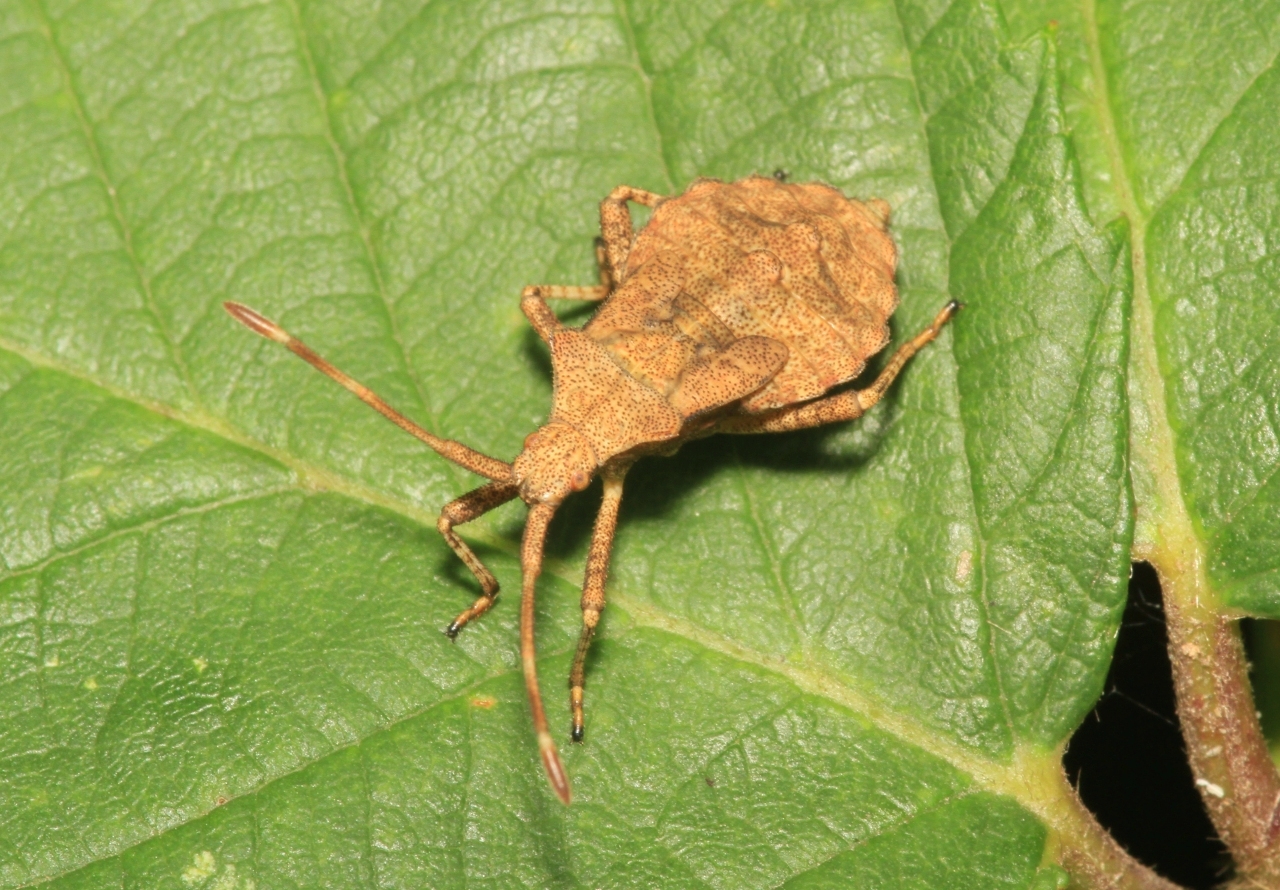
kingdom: Animalia
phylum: Arthropoda
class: Insecta
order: Hemiptera
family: Coreidae
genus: Coreus
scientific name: Coreus marginatus
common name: Dock bug
